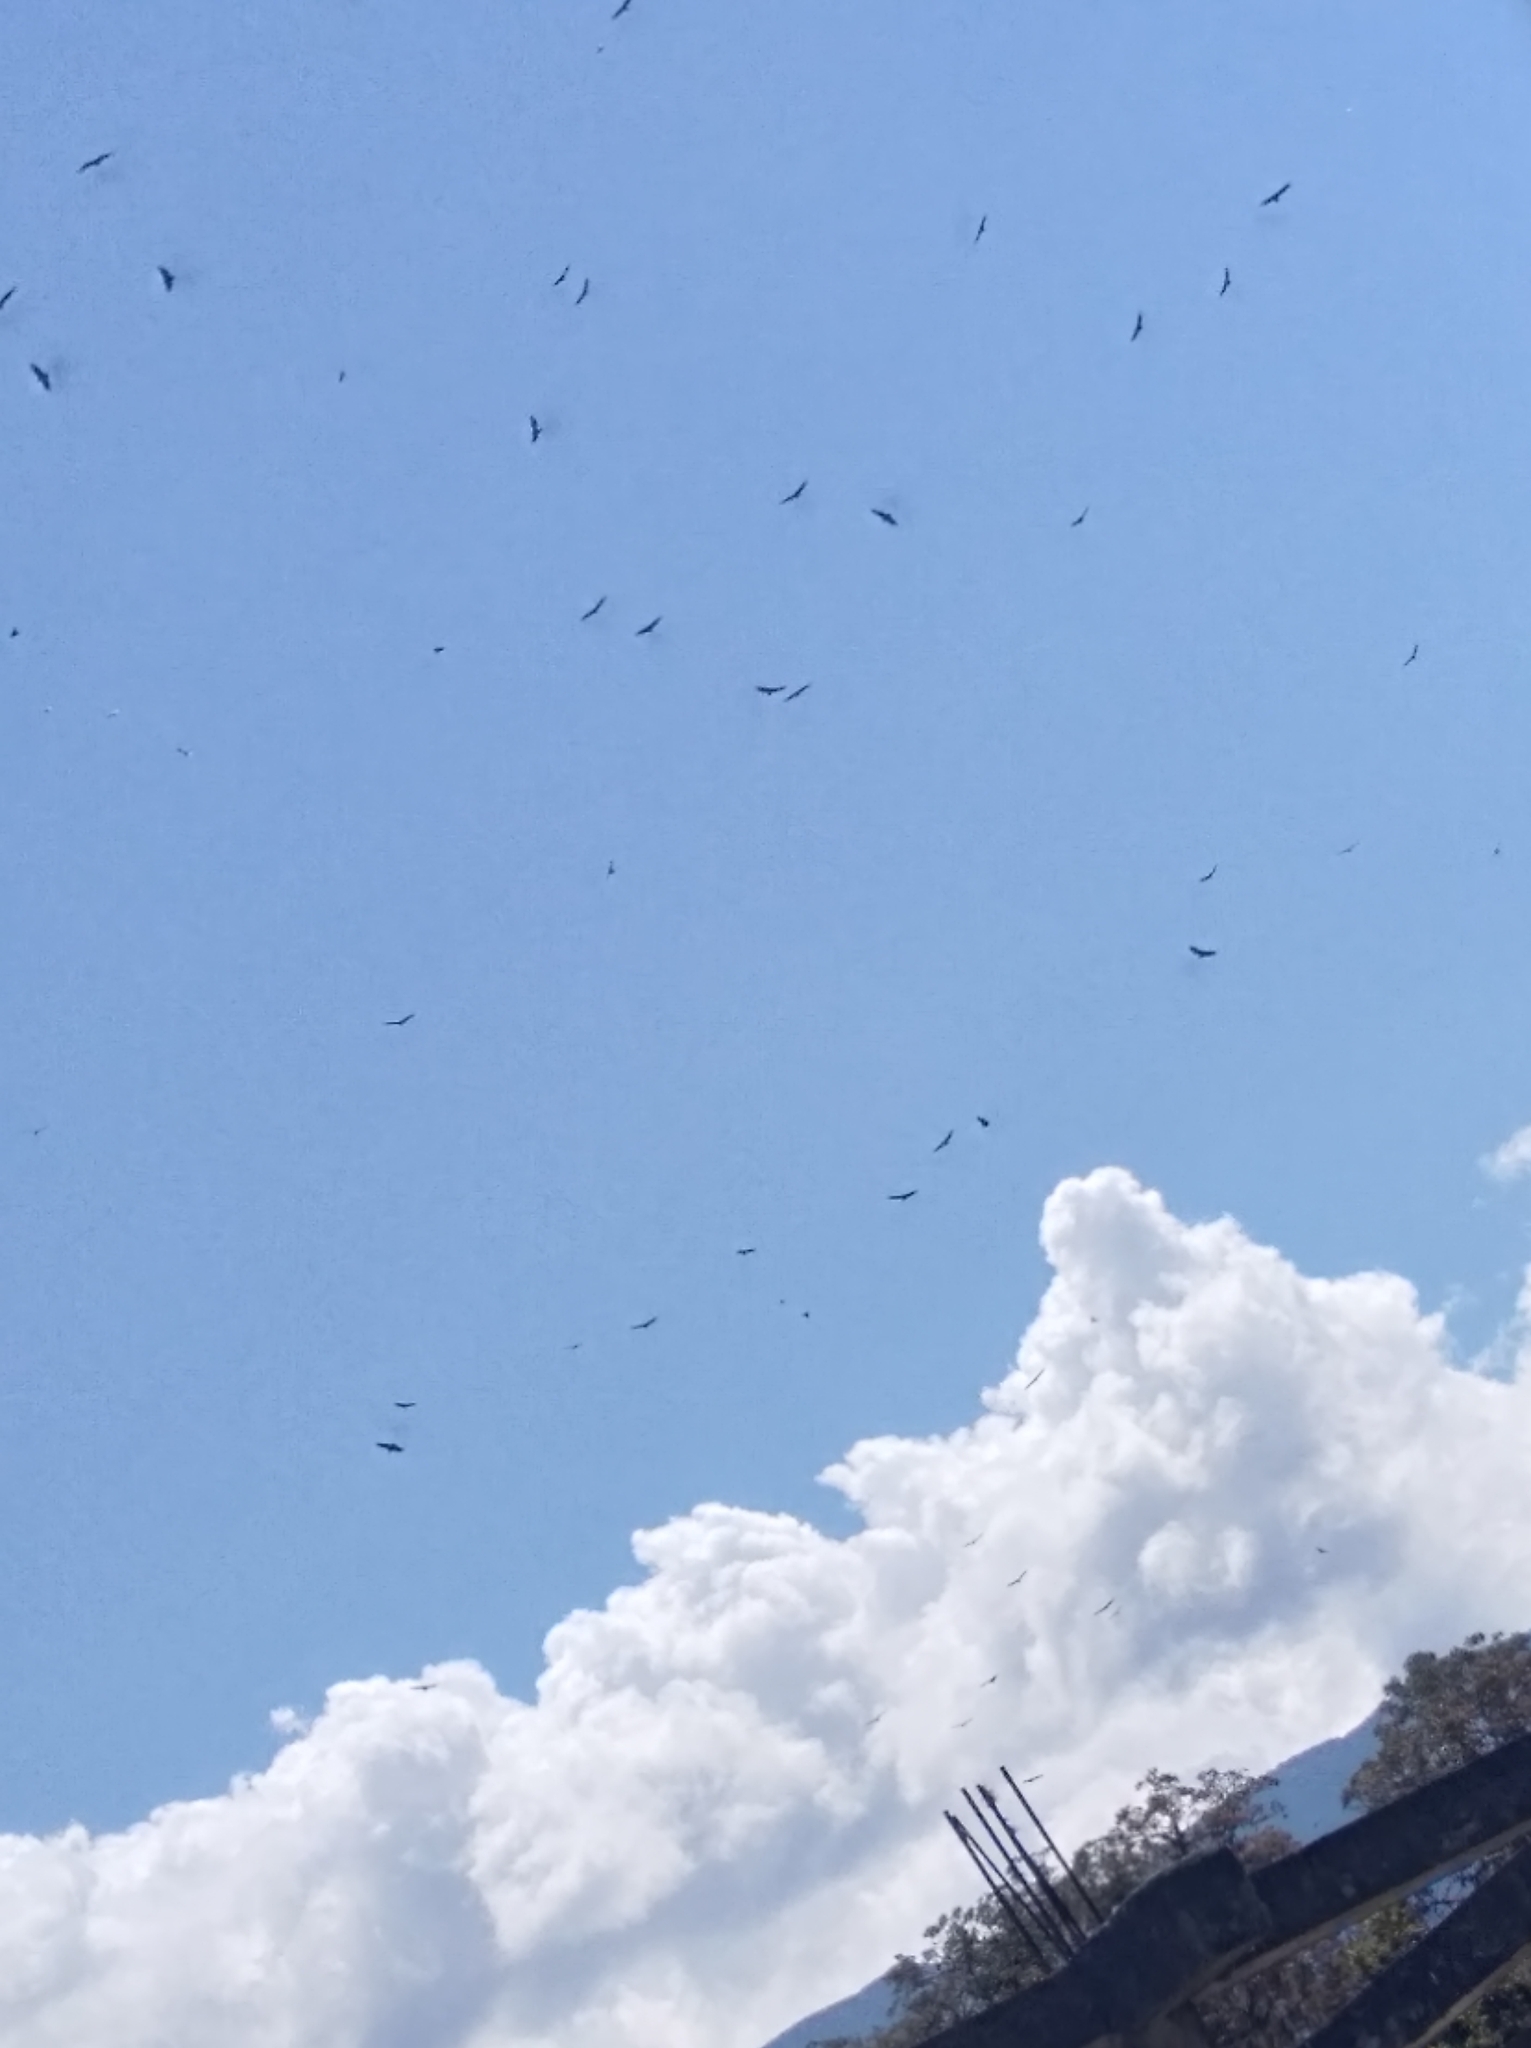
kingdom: Animalia
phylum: Chordata
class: Aves
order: Accipitriformes
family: Cathartidae
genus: Coragyps
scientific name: Coragyps atratus
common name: Black vulture
